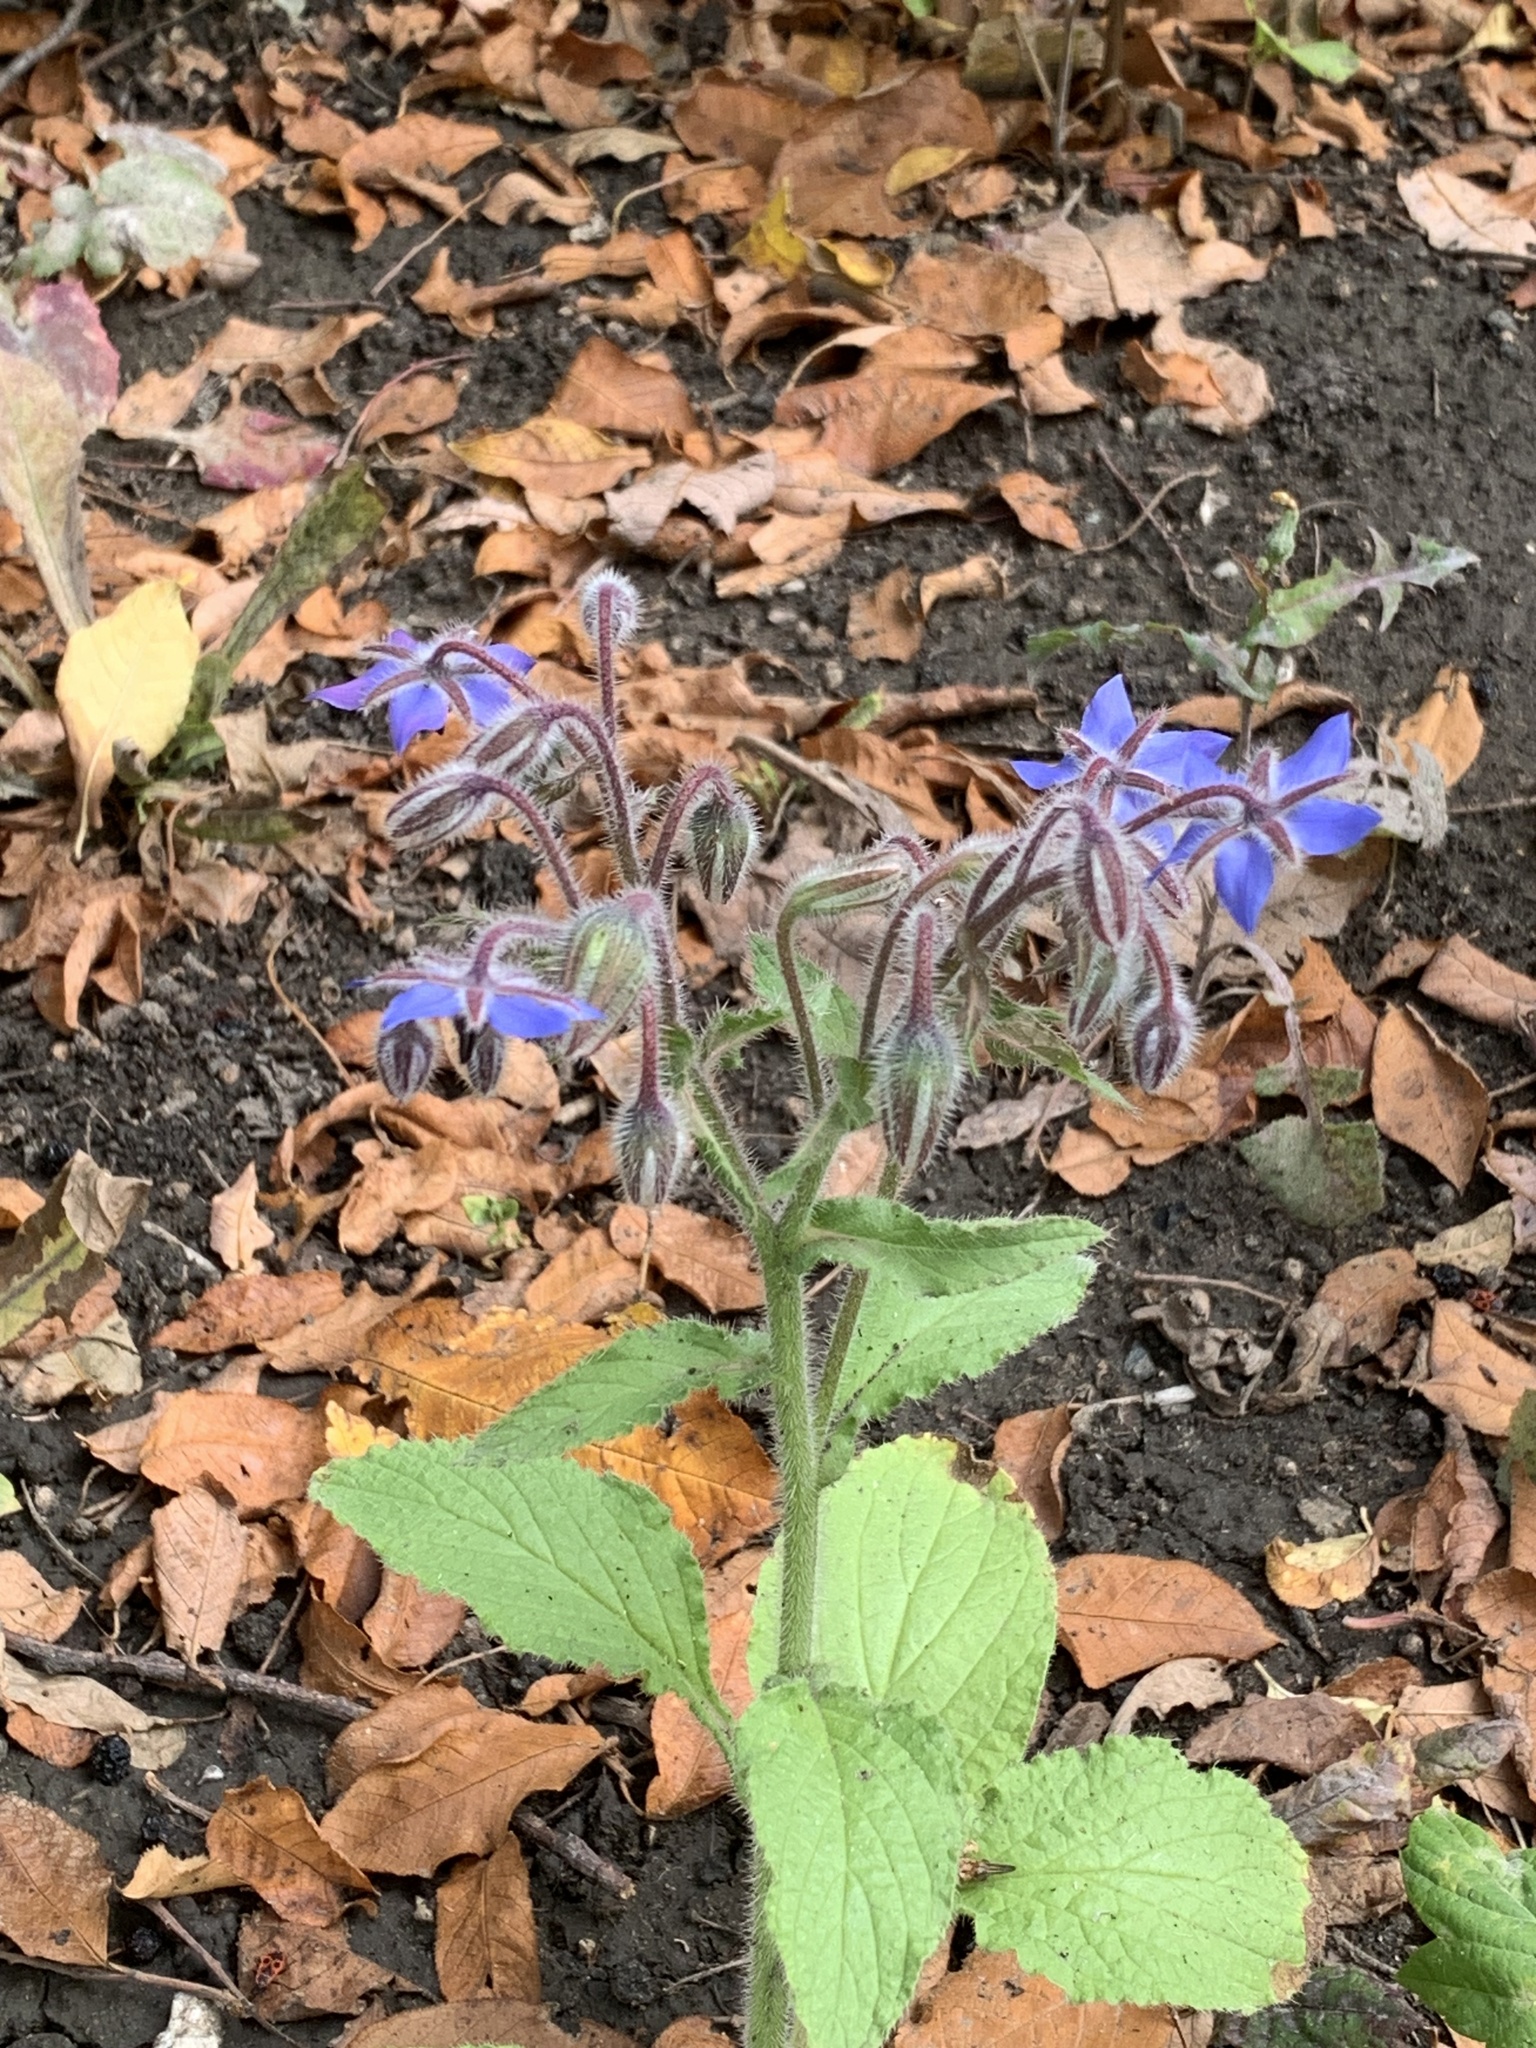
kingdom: Plantae
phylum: Tracheophyta
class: Magnoliopsida
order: Boraginales
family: Boraginaceae
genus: Borago
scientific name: Borago officinalis
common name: Borage
